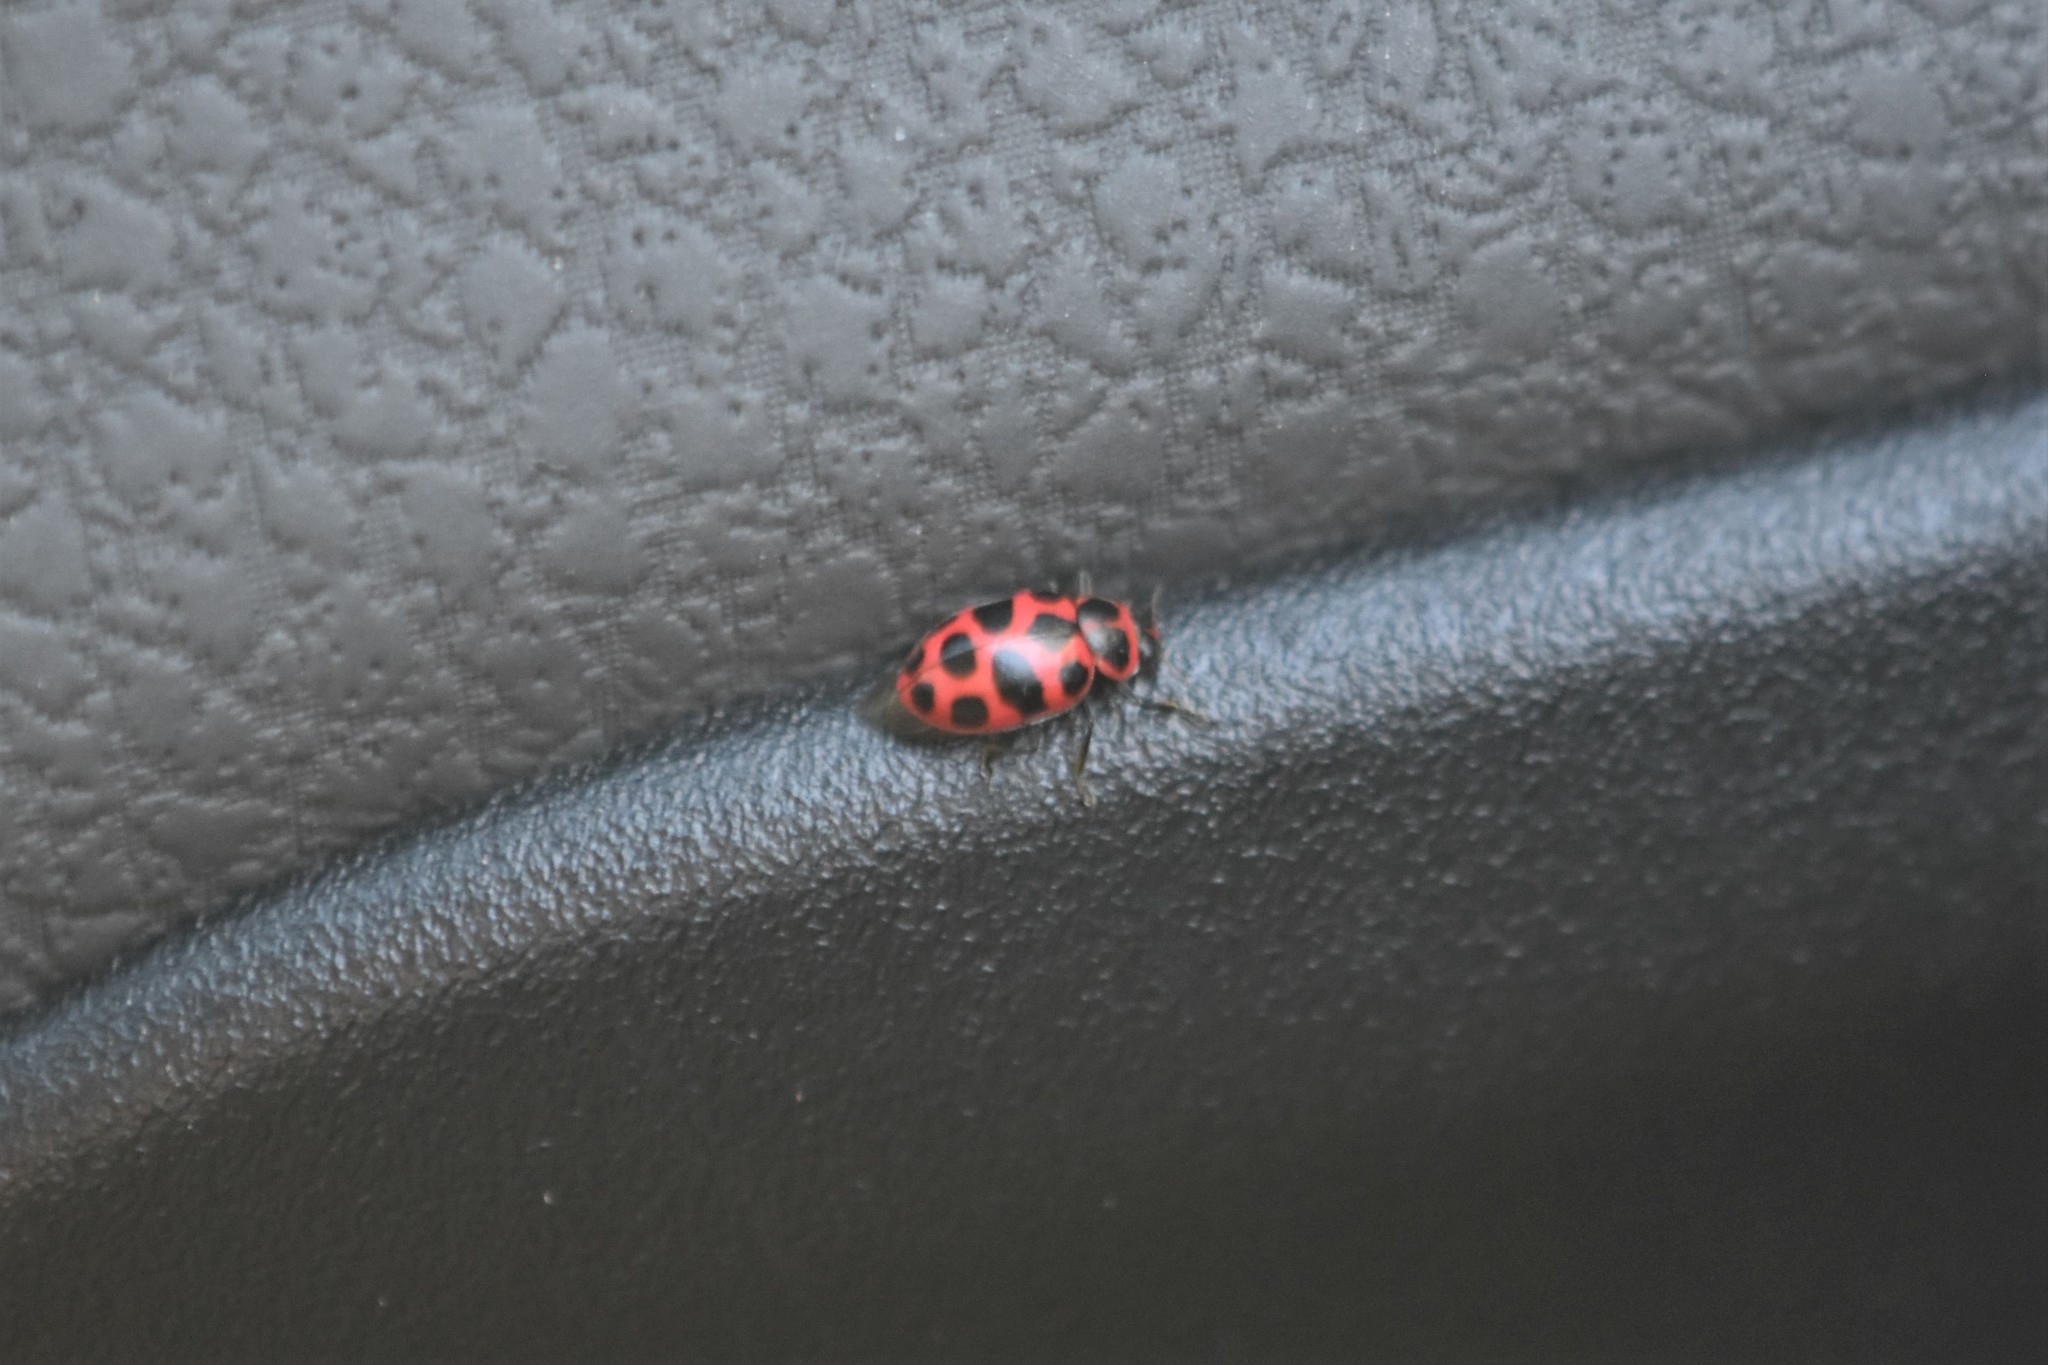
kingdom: Animalia
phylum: Arthropoda
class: Insecta
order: Coleoptera
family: Coccinellidae
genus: Coleomegilla
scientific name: Coleomegilla maculata
